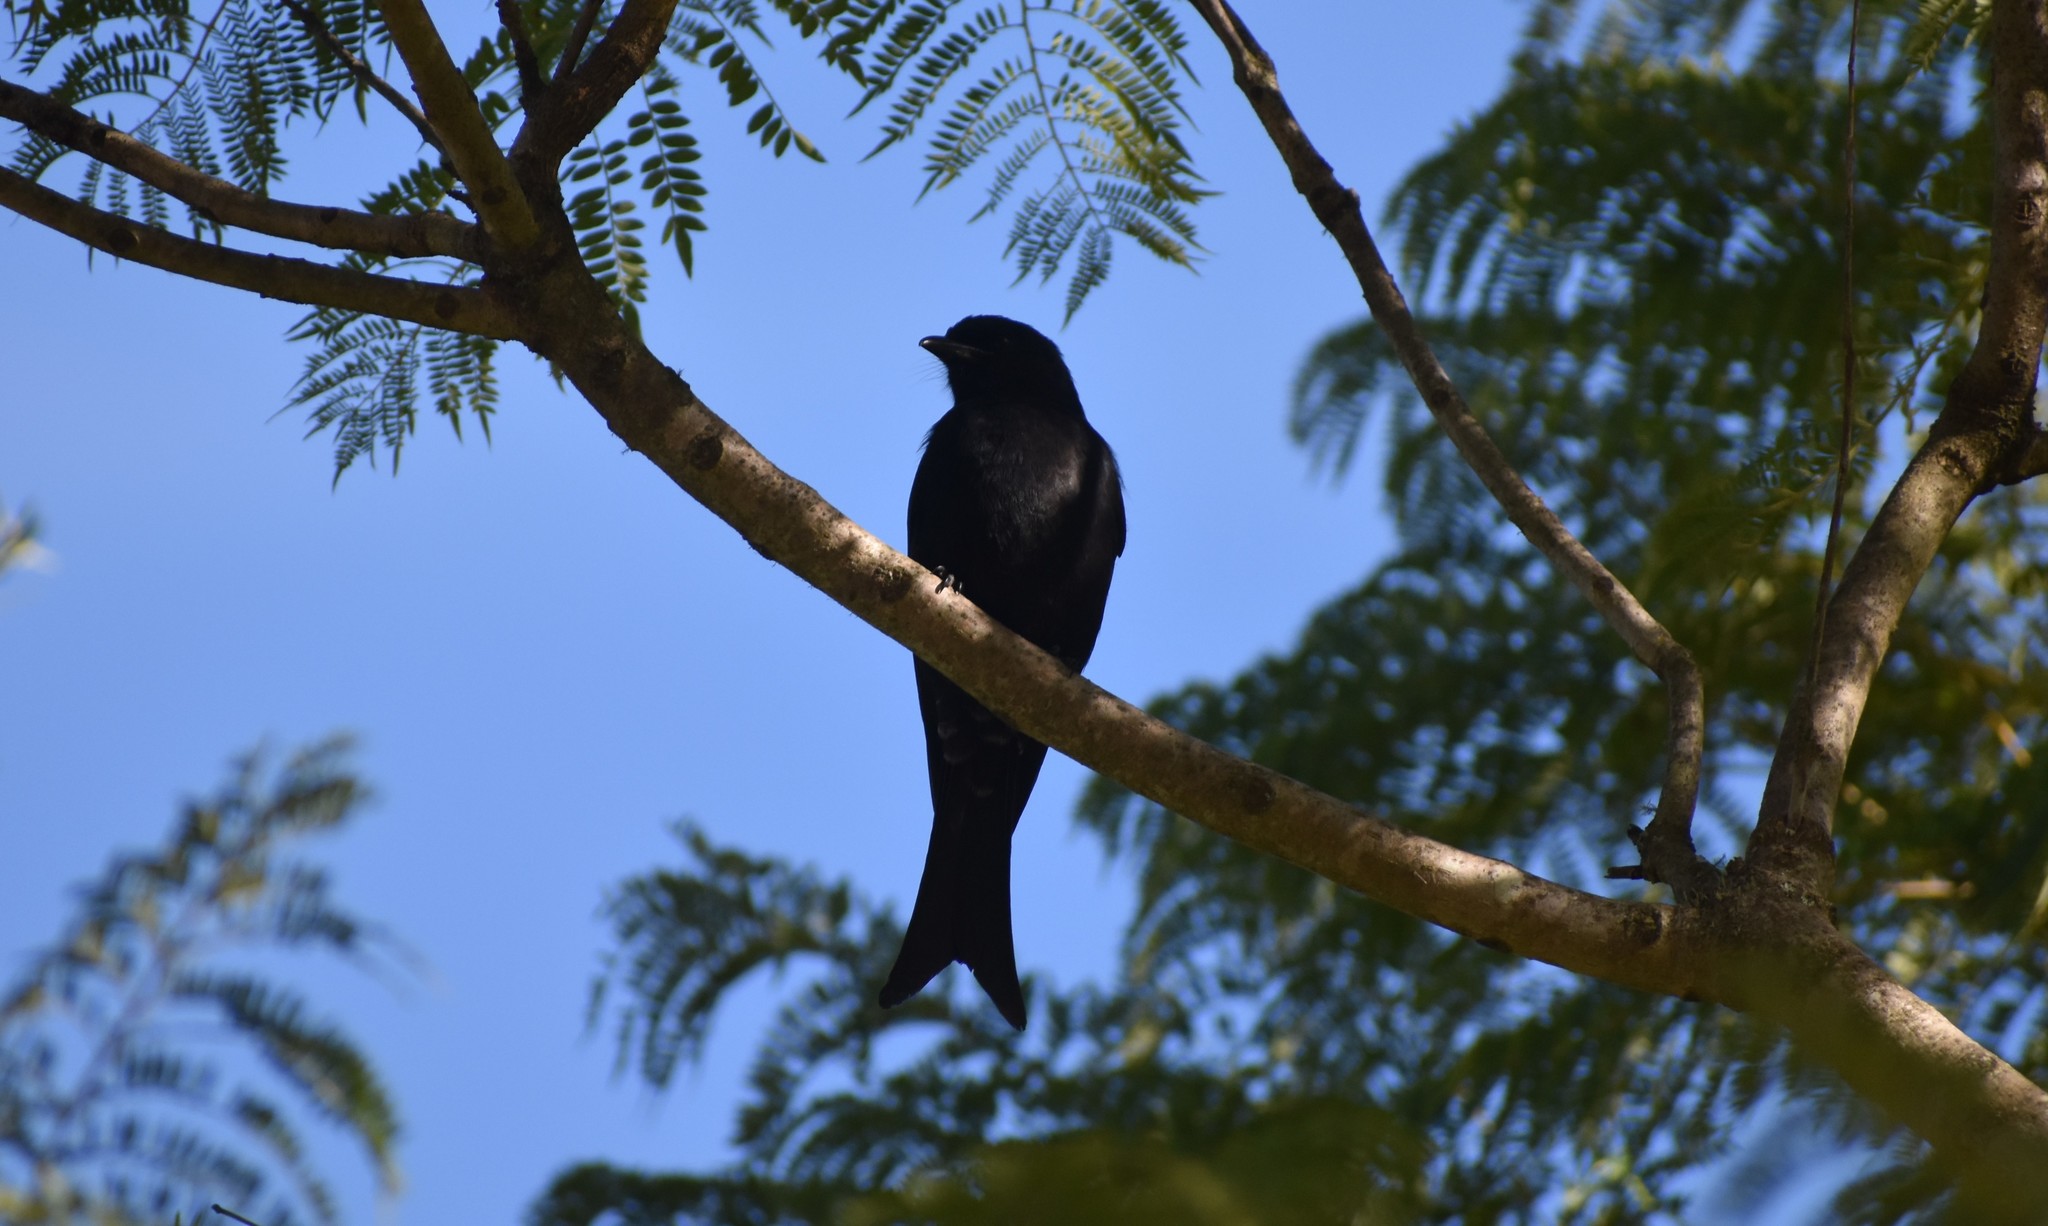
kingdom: Animalia
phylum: Chordata
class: Aves
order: Passeriformes
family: Dicruridae
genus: Dicrurus
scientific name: Dicrurus adsimilis
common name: Fork-tailed drongo
